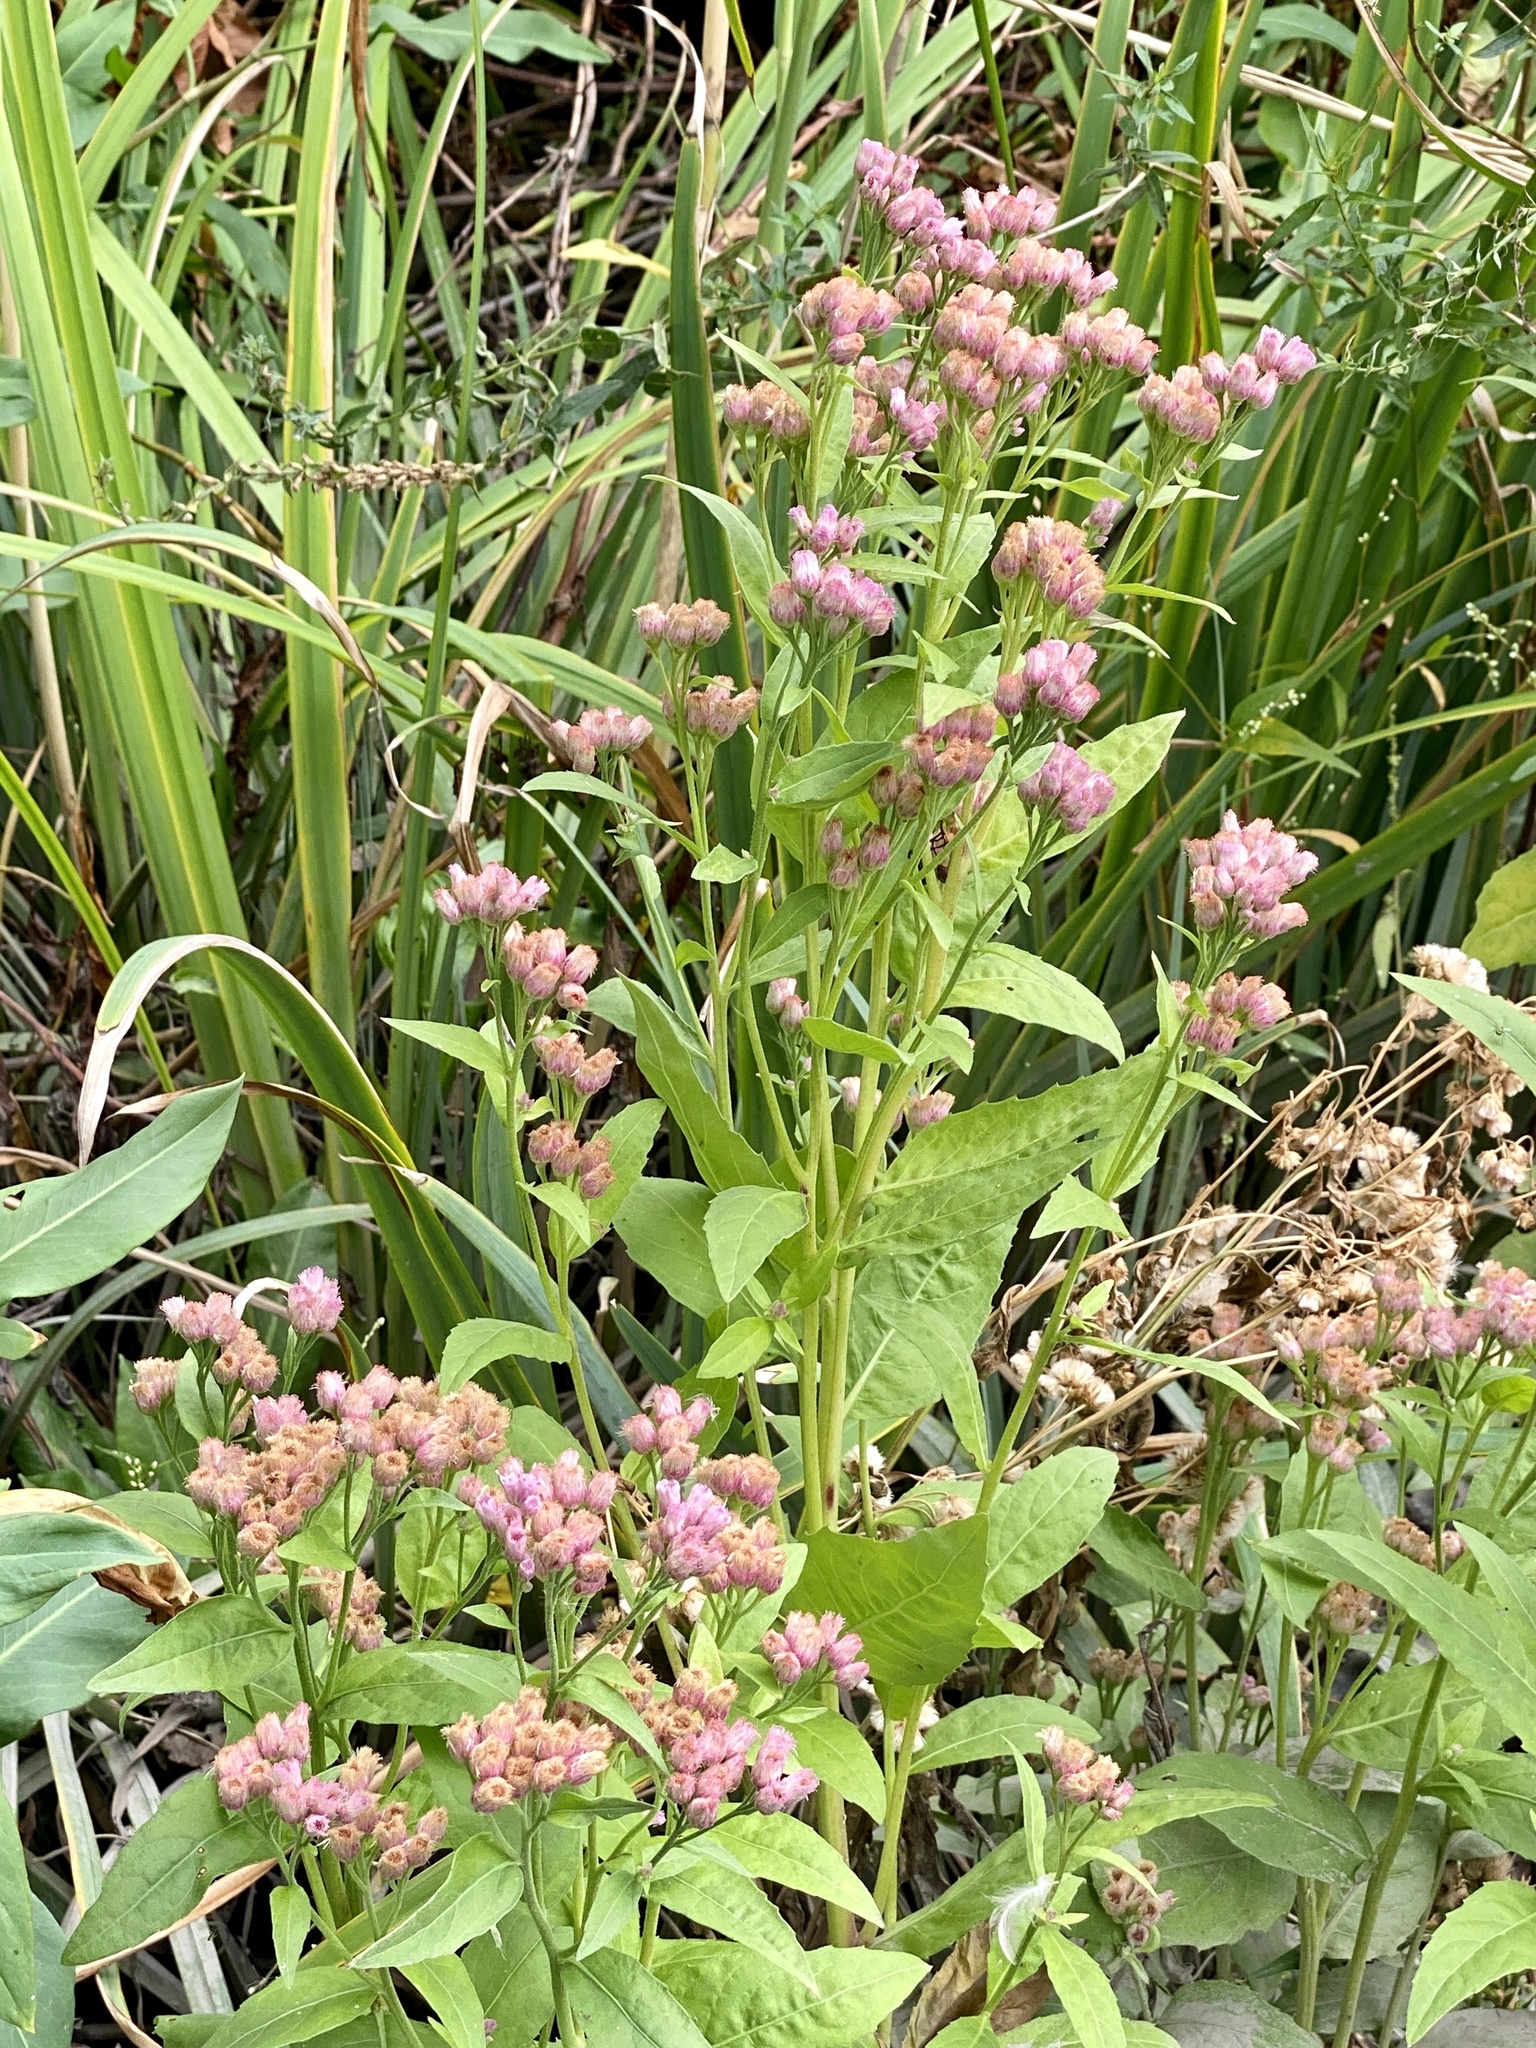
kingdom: Plantae
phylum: Tracheophyta
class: Magnoliopsida
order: Asterales
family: Asteraceae
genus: Pluchea
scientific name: Pluchea odorata
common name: Saltmarsh fleabane
